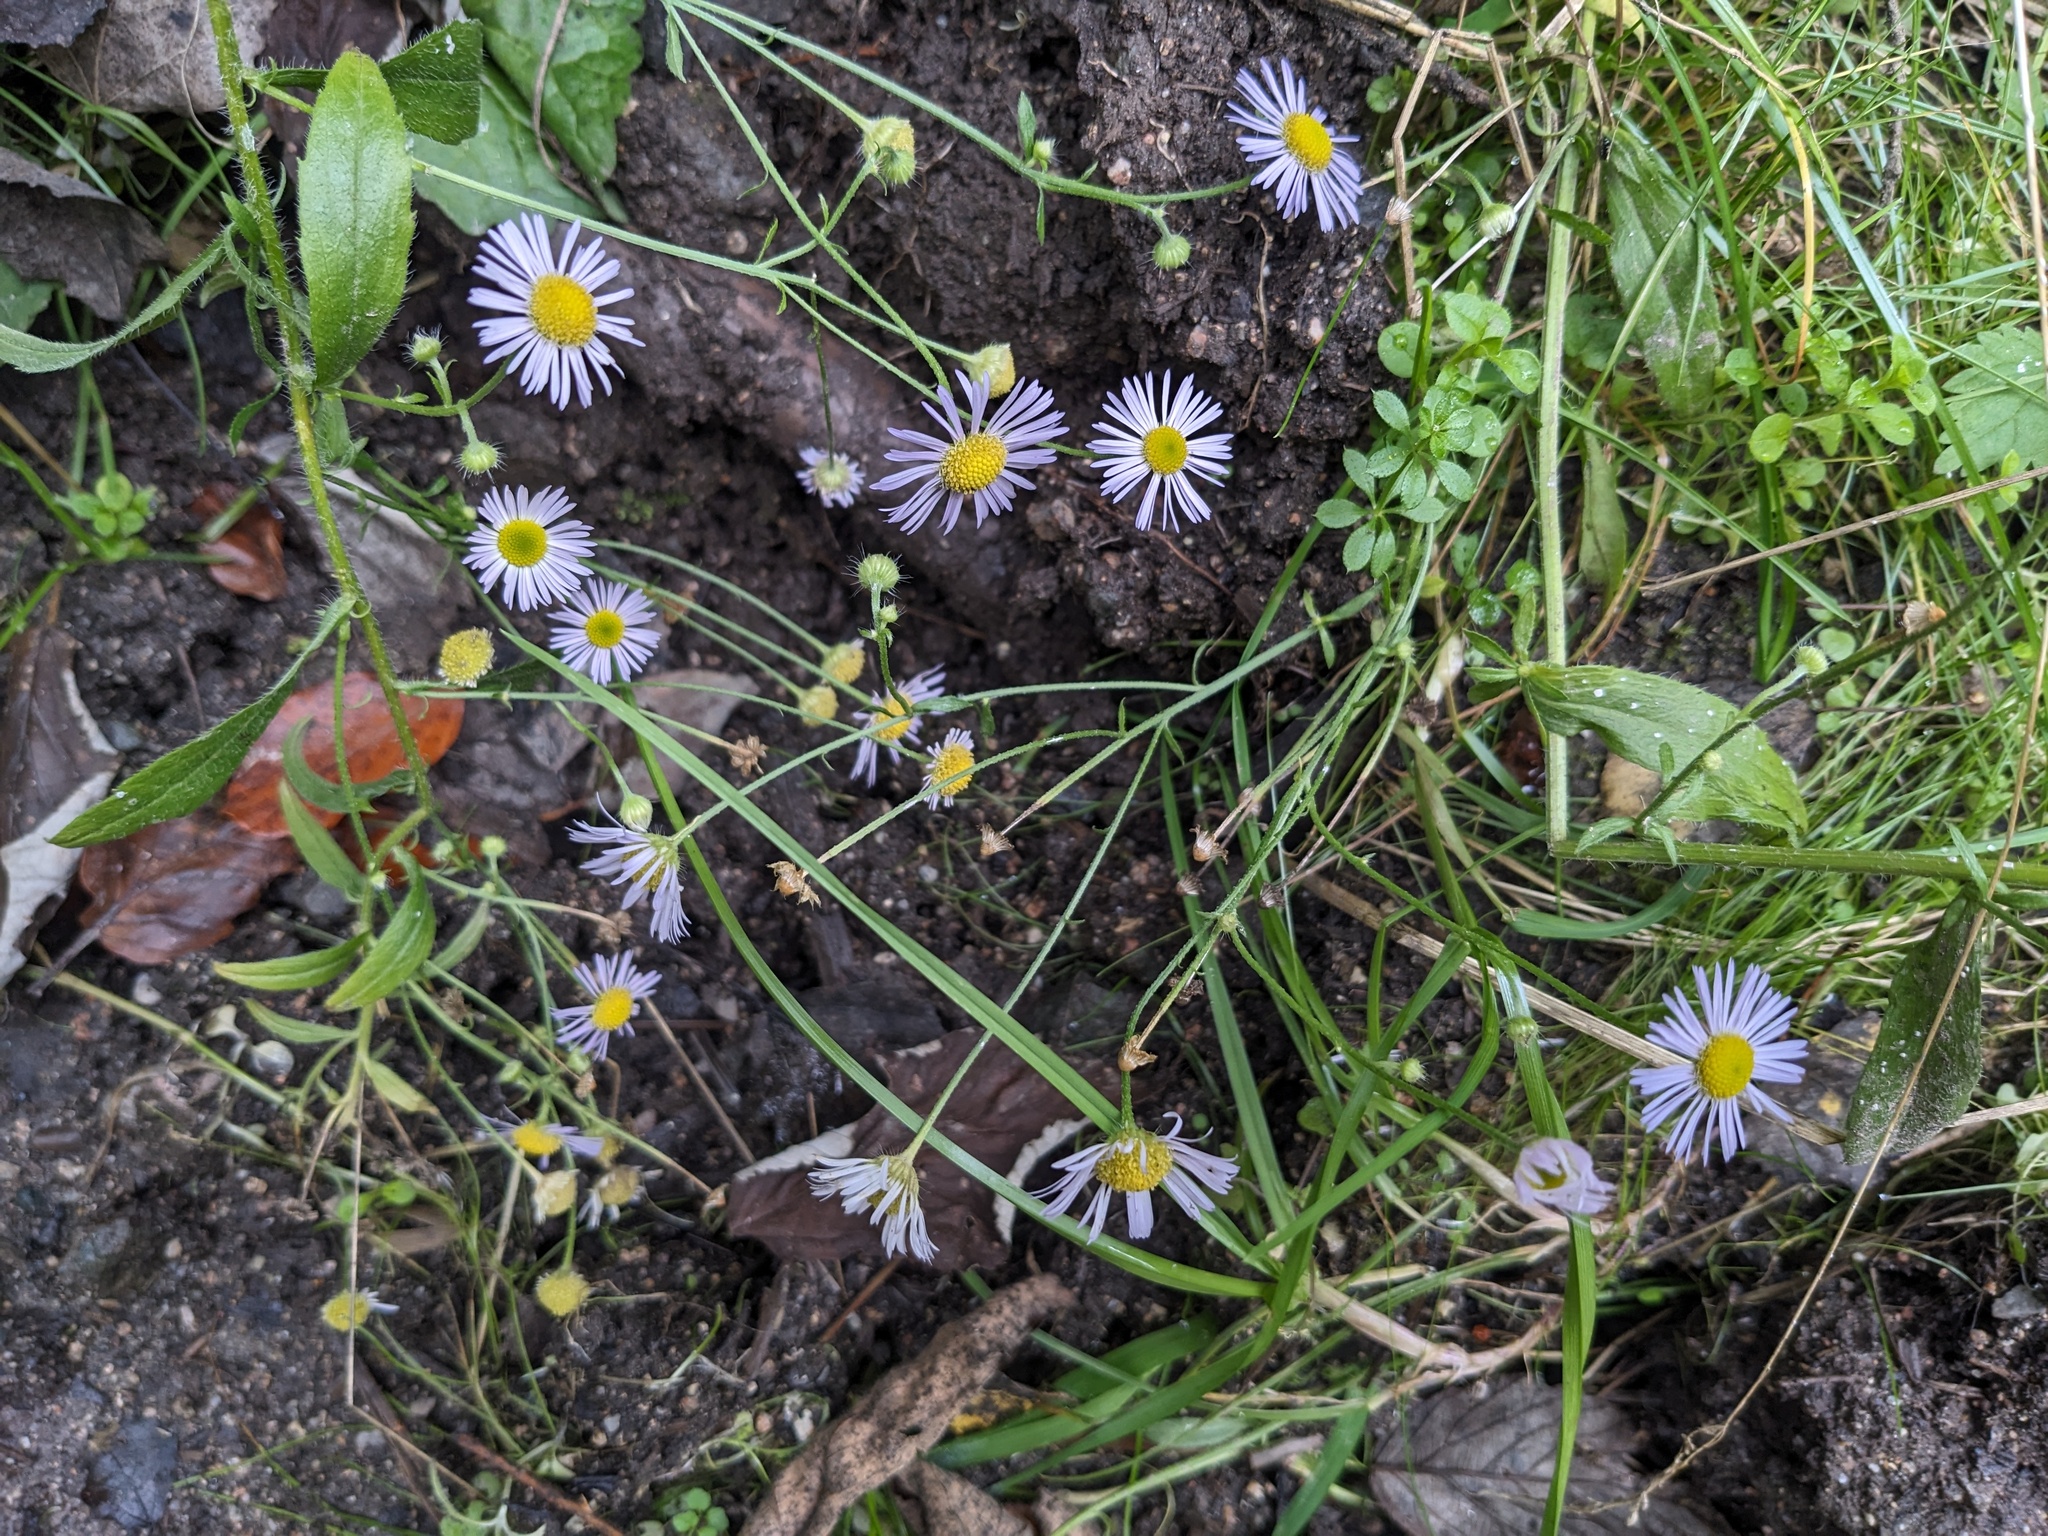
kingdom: Plantae
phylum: Tracheophyta
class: Magnoliopsida
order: Asterales
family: Asteraceae
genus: Erigeron
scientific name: Erigeron annuus
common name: Tall fleabane
